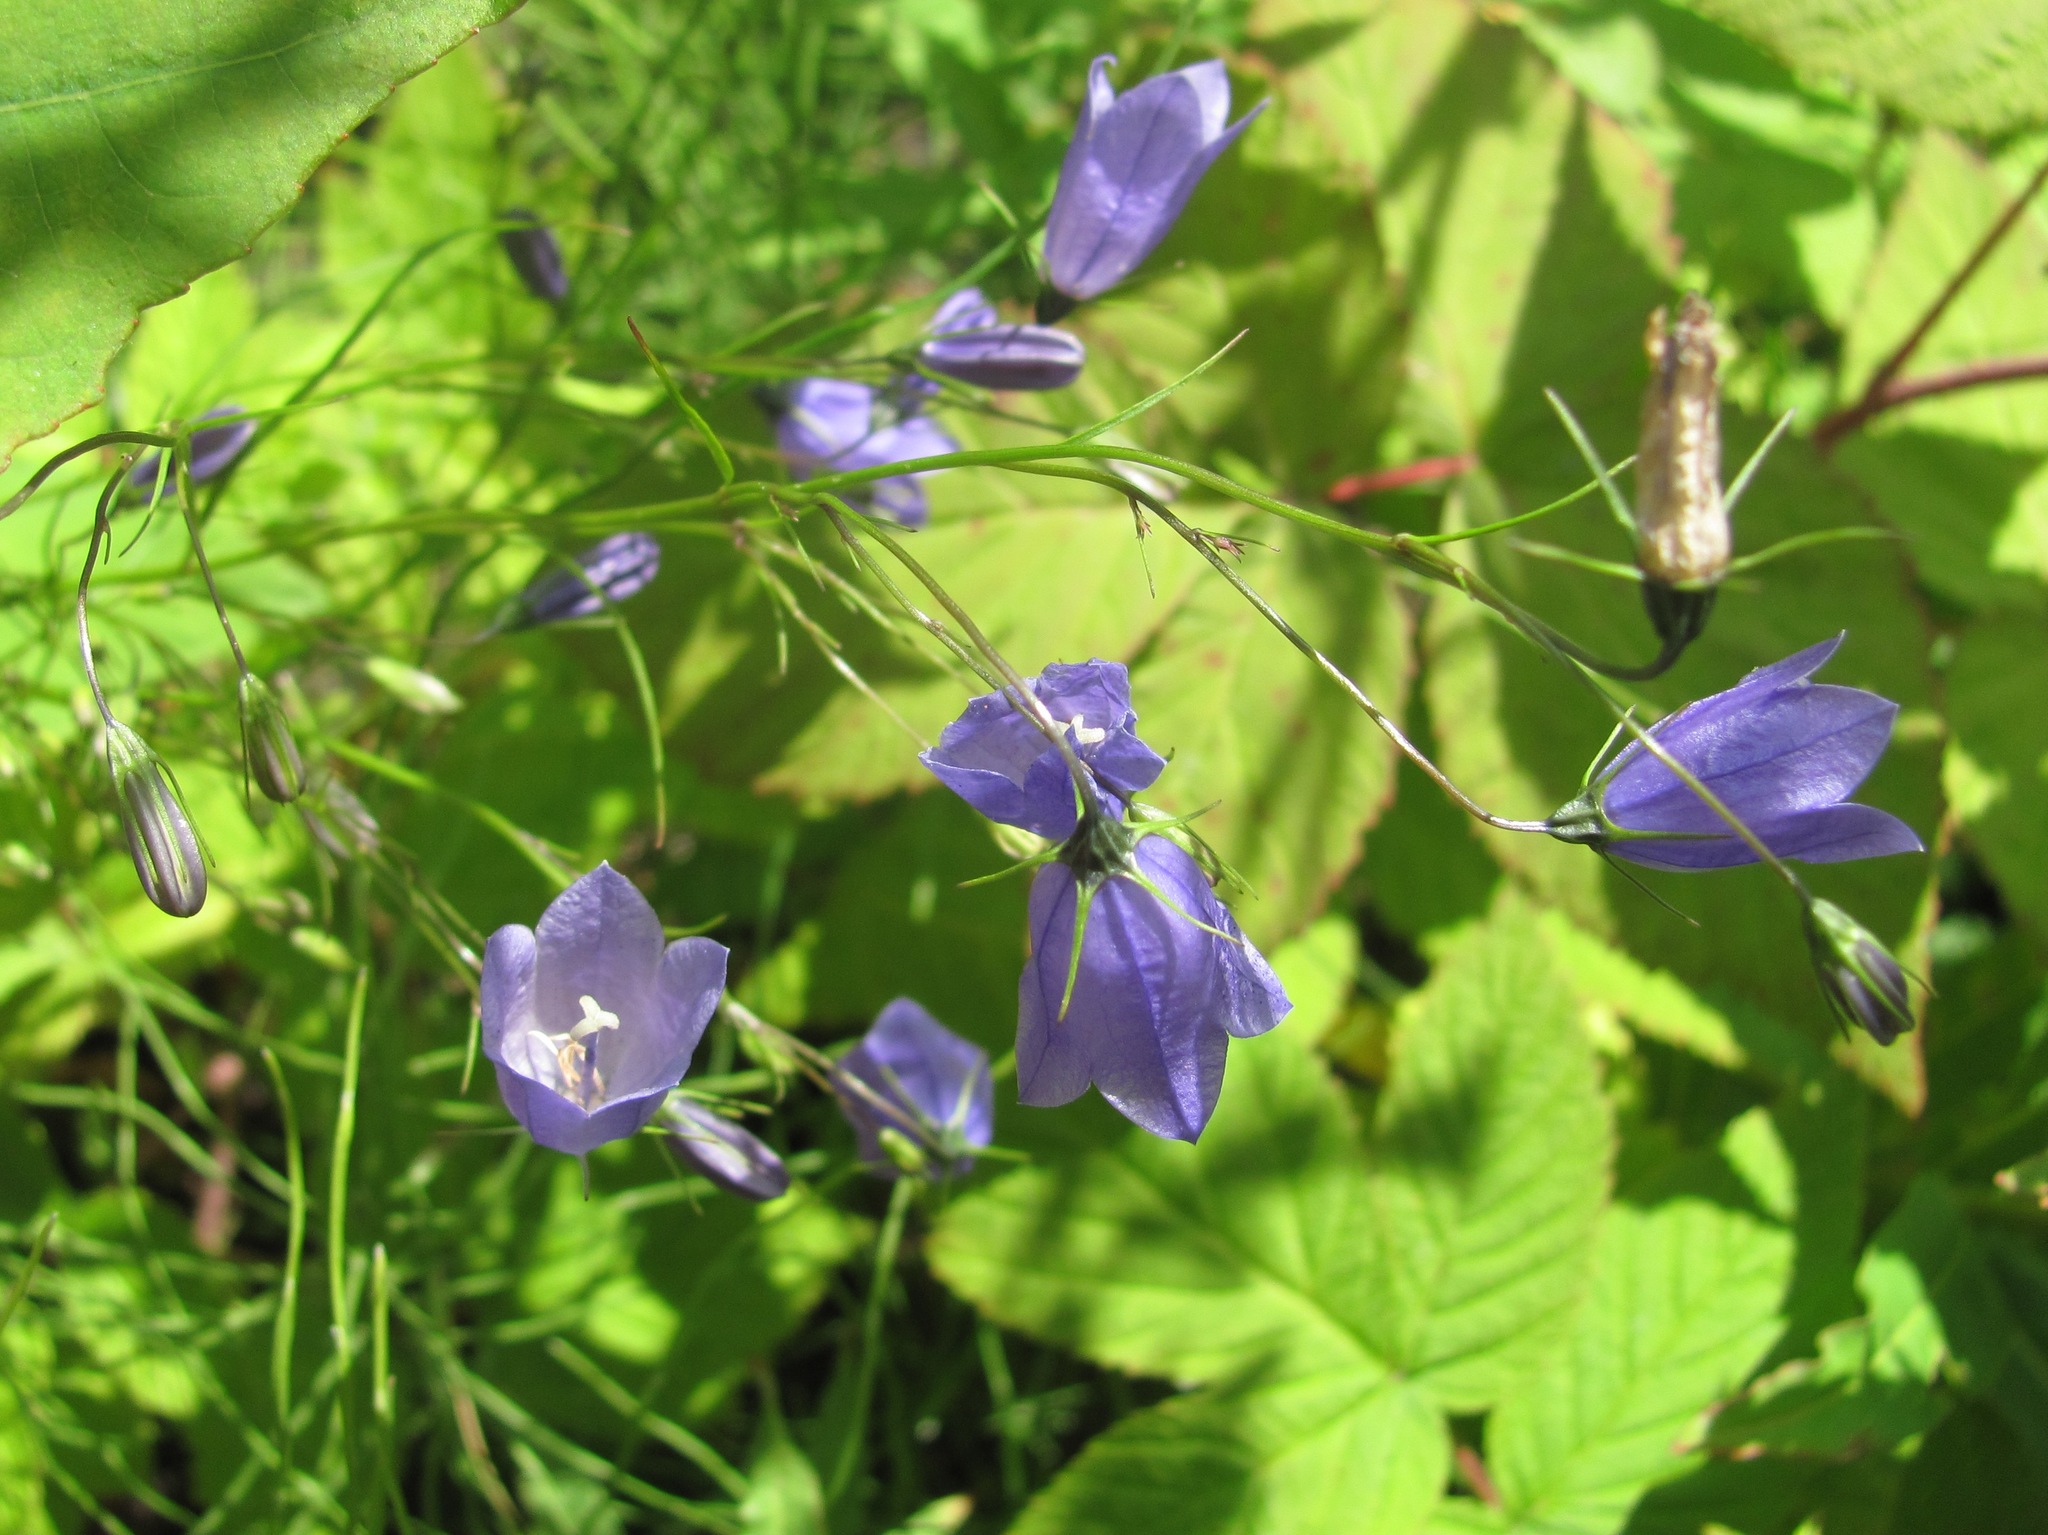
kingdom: Plantae
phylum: Tracheophyta
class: Magnoliopsida
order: Asterales
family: Campanulaceae
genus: Campanula
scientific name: Campanula rotundifolia
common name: Harebell
